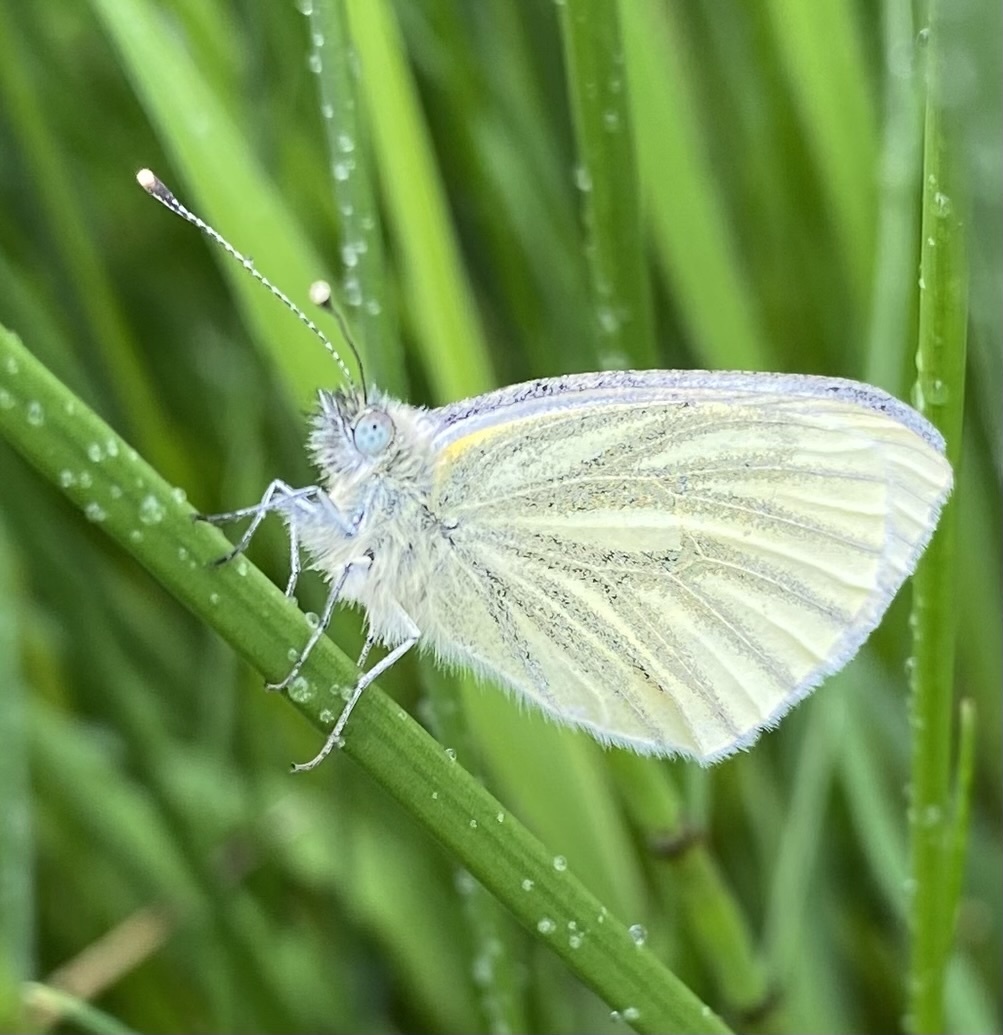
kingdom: Animalia
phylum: Arthropoda
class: Insecta
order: Lepidoptera
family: Pieridae
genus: Pieris
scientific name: Pieris napi
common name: Green-veined white
